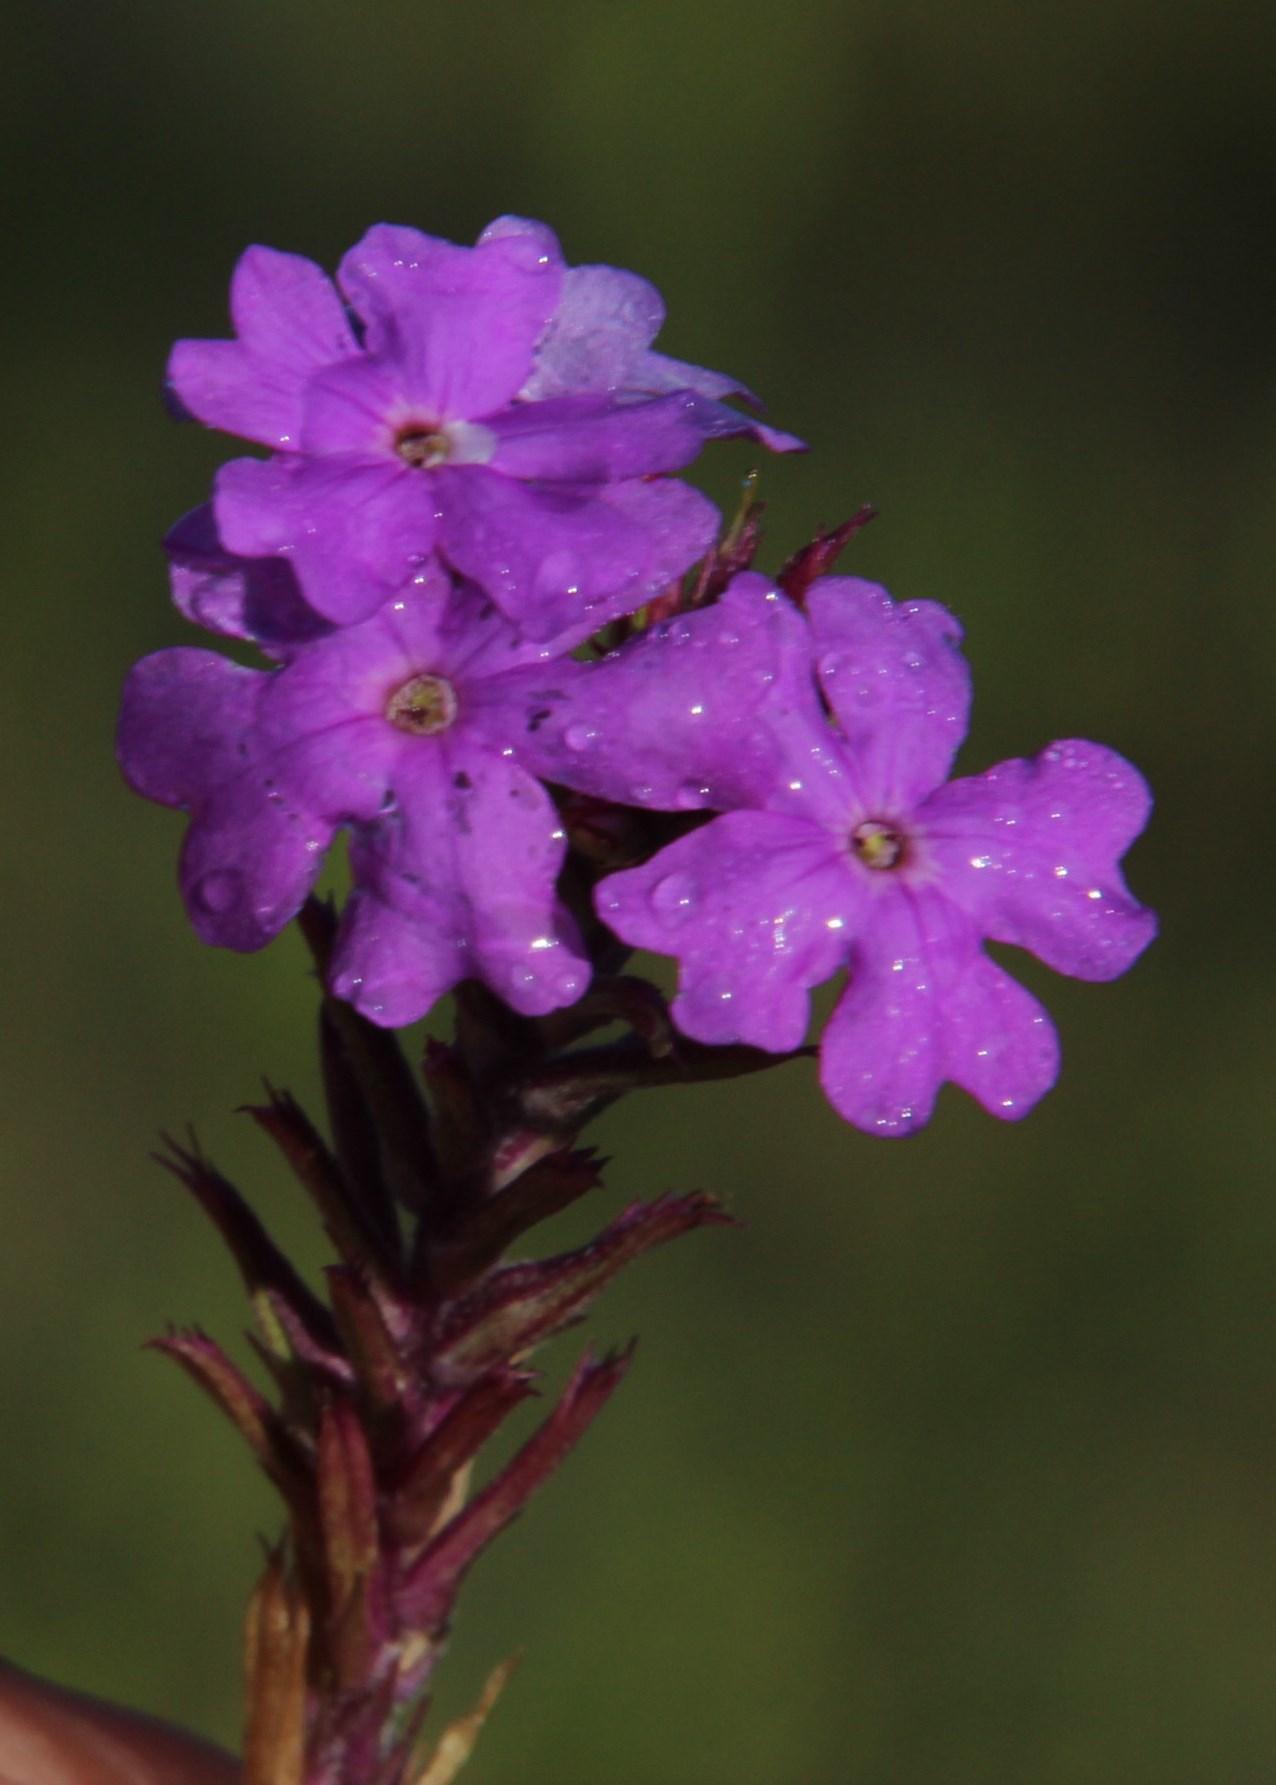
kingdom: Plantae
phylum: Tracheophyta
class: Magnoliopsida
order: Lamiales
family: Verbenaceae
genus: Verbena
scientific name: Verbena aristigera
